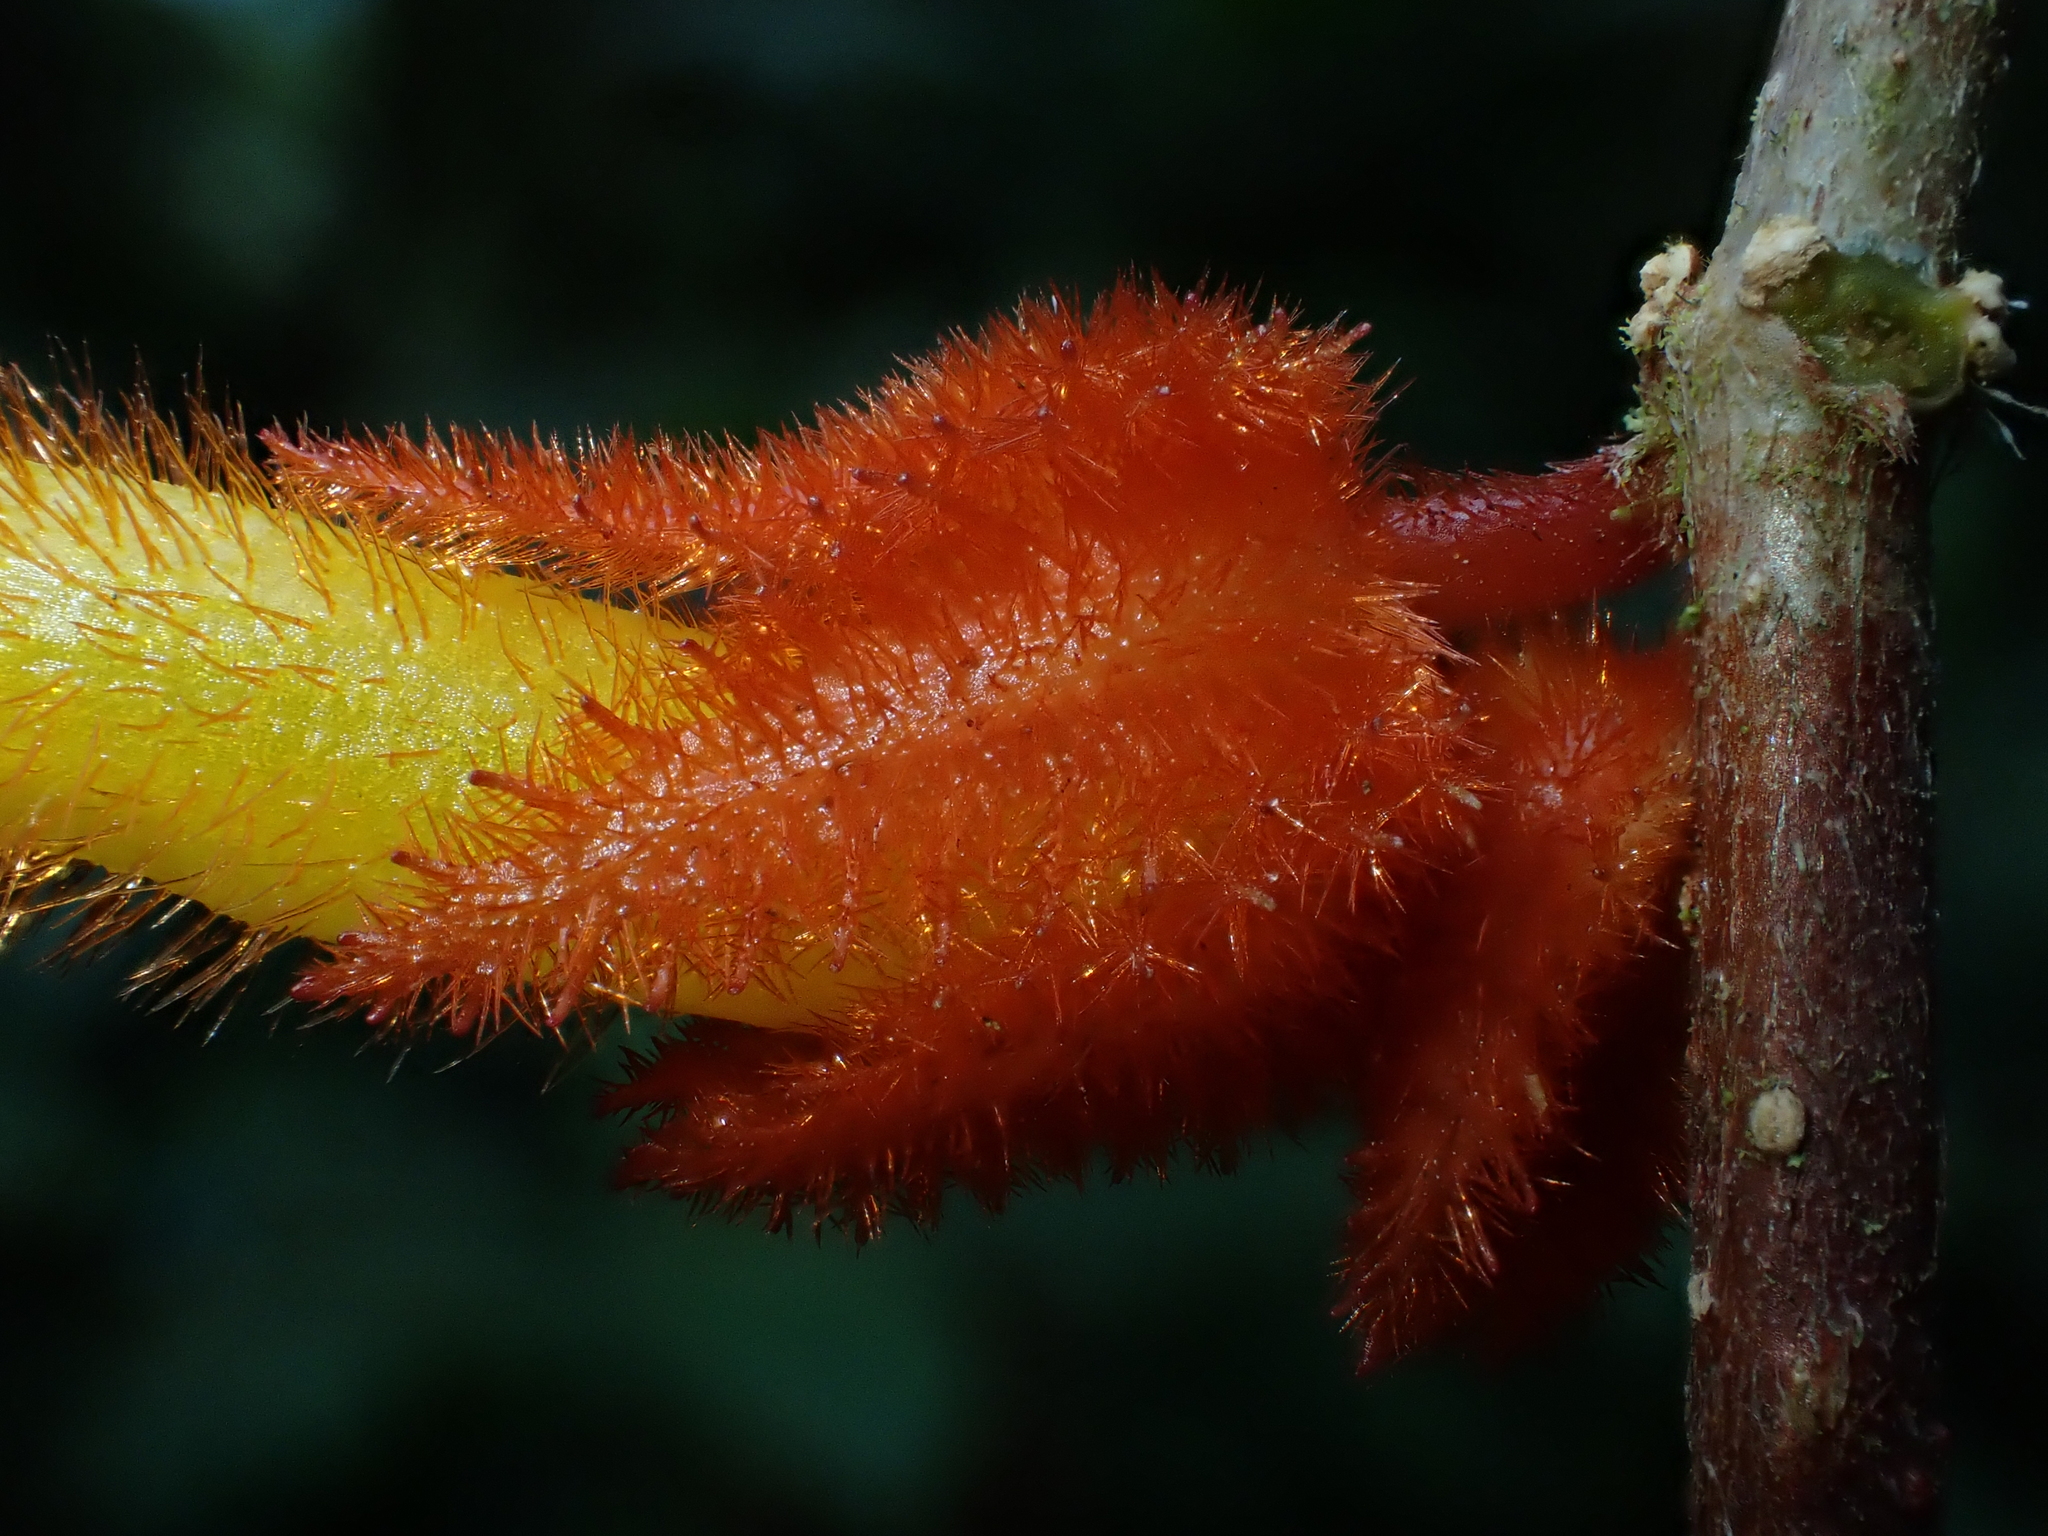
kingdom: Plantae
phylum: Tracheophyta
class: Magnoliopsida
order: Lamiales
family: Gesneriaceae
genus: Columnea
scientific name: Columnea fimbricalyx
